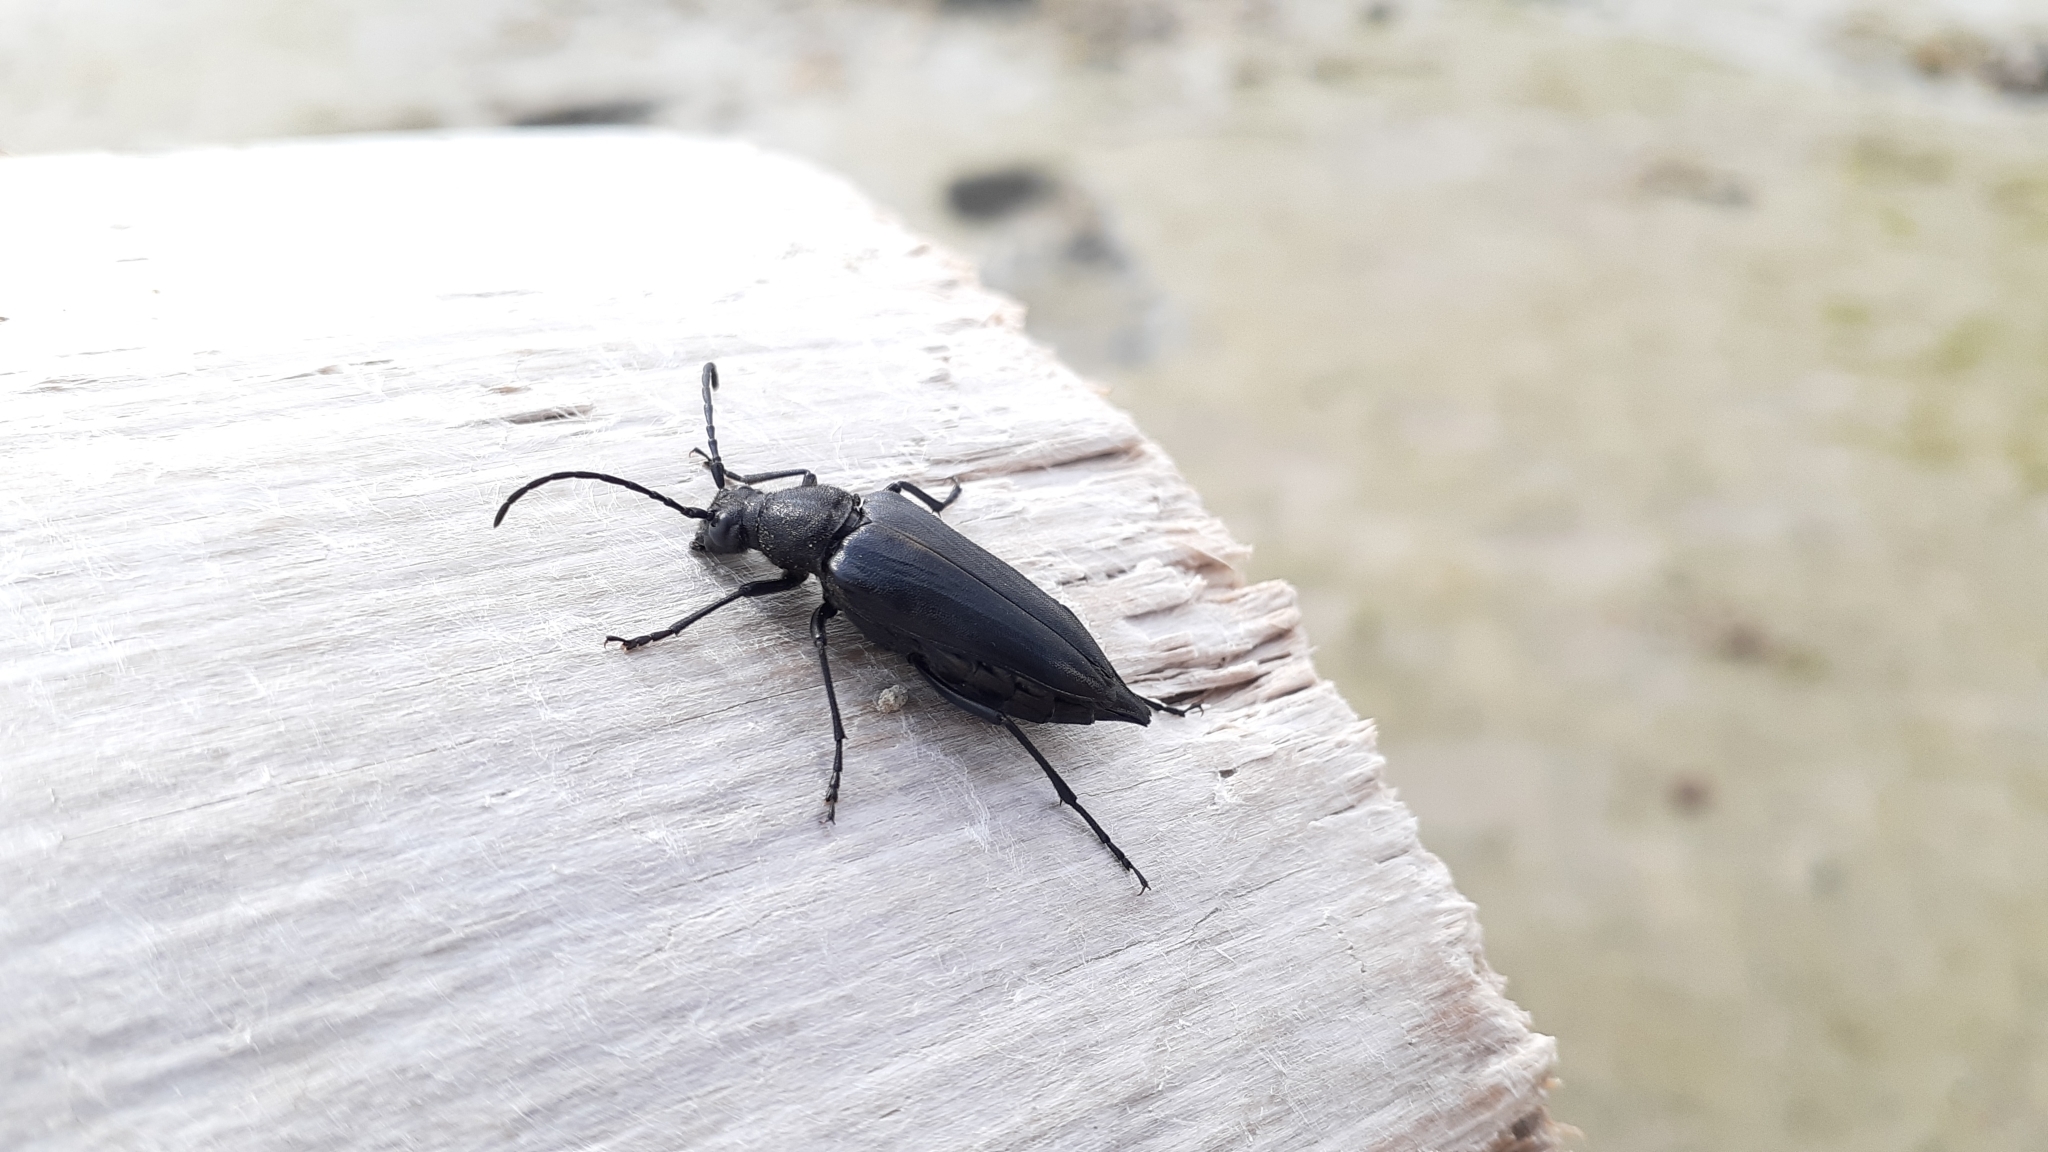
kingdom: Animalia
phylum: Arthropoda
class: Insecta
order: Coleoptera
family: Cerambycidae
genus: Etorofus
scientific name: Etorofus
